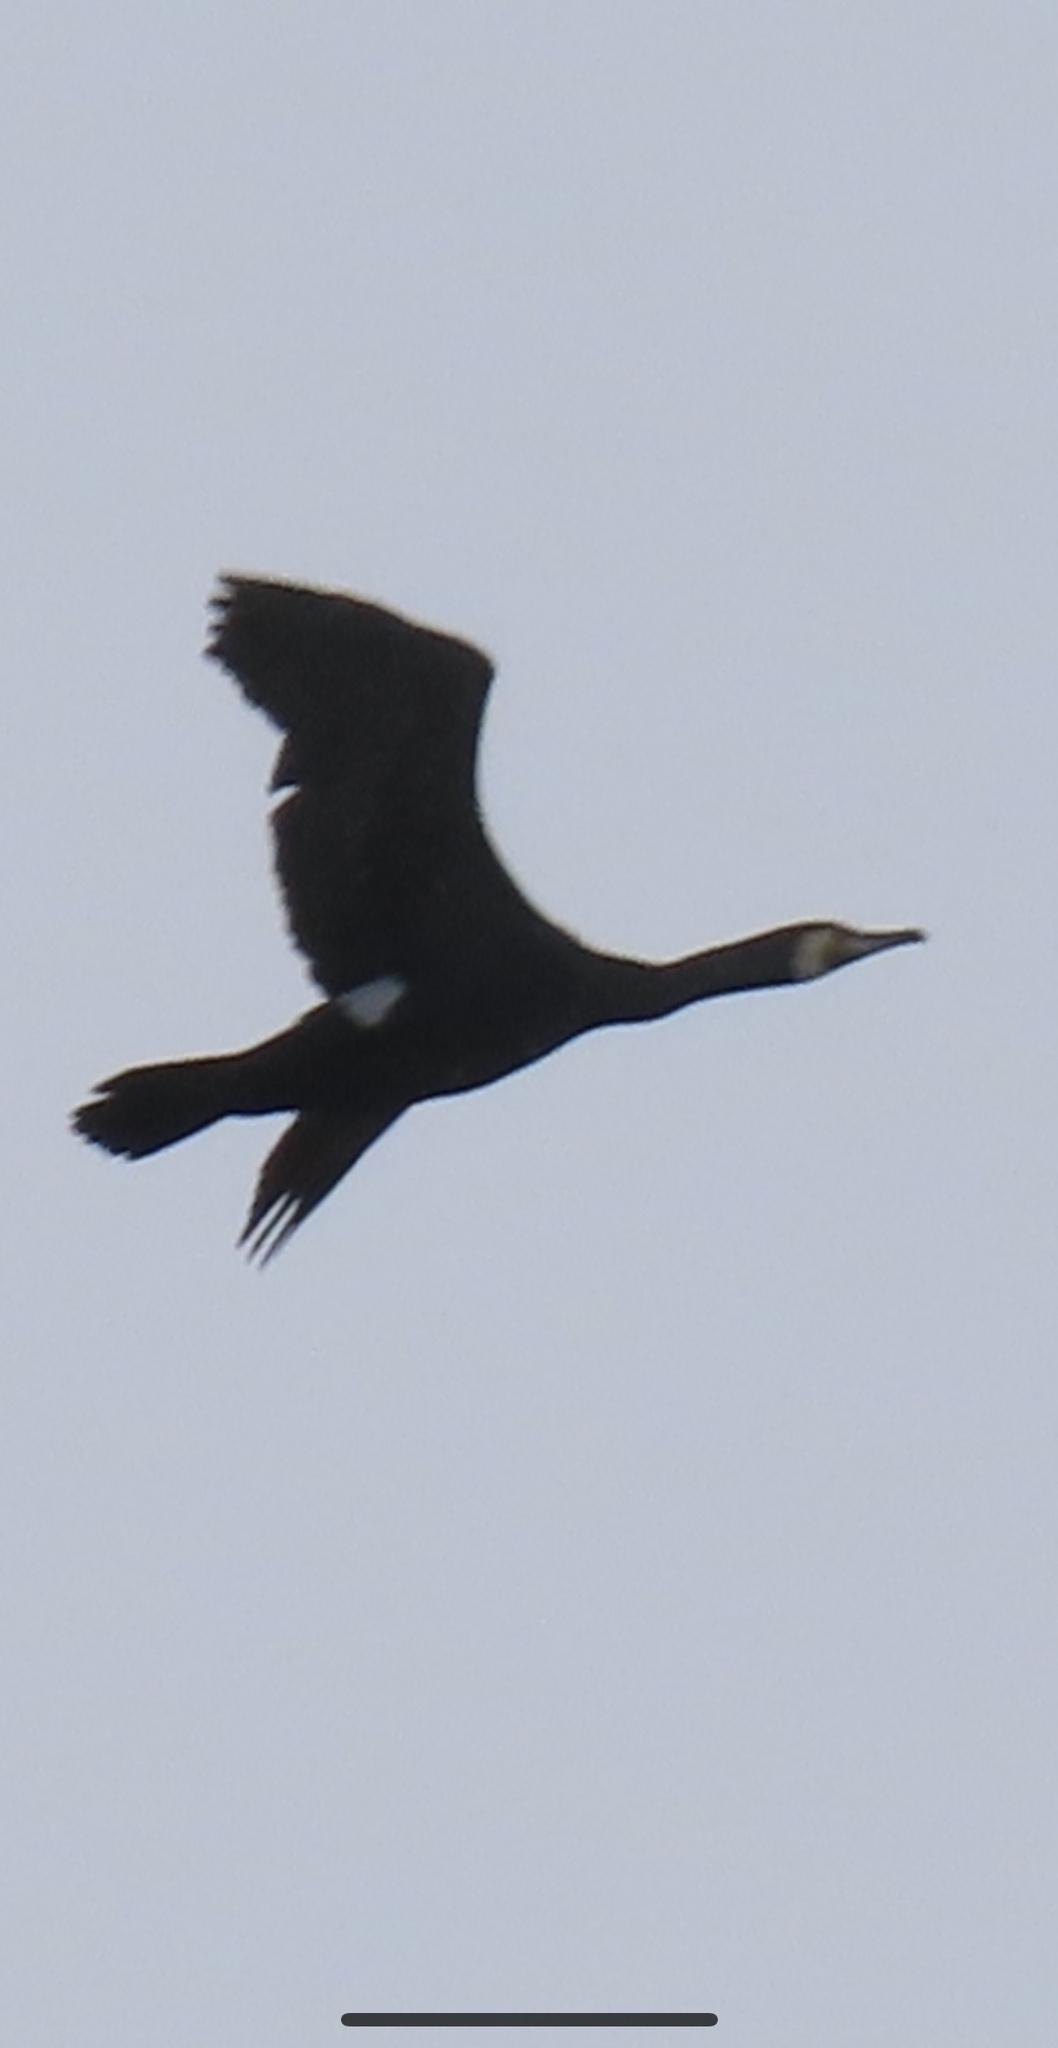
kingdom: Animalia
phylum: Chordata
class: Aves
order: Suliformes
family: Phalacrocoracidae
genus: Phalacrocorax
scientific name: Phalacrocorax carbo
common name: Great cormorant
